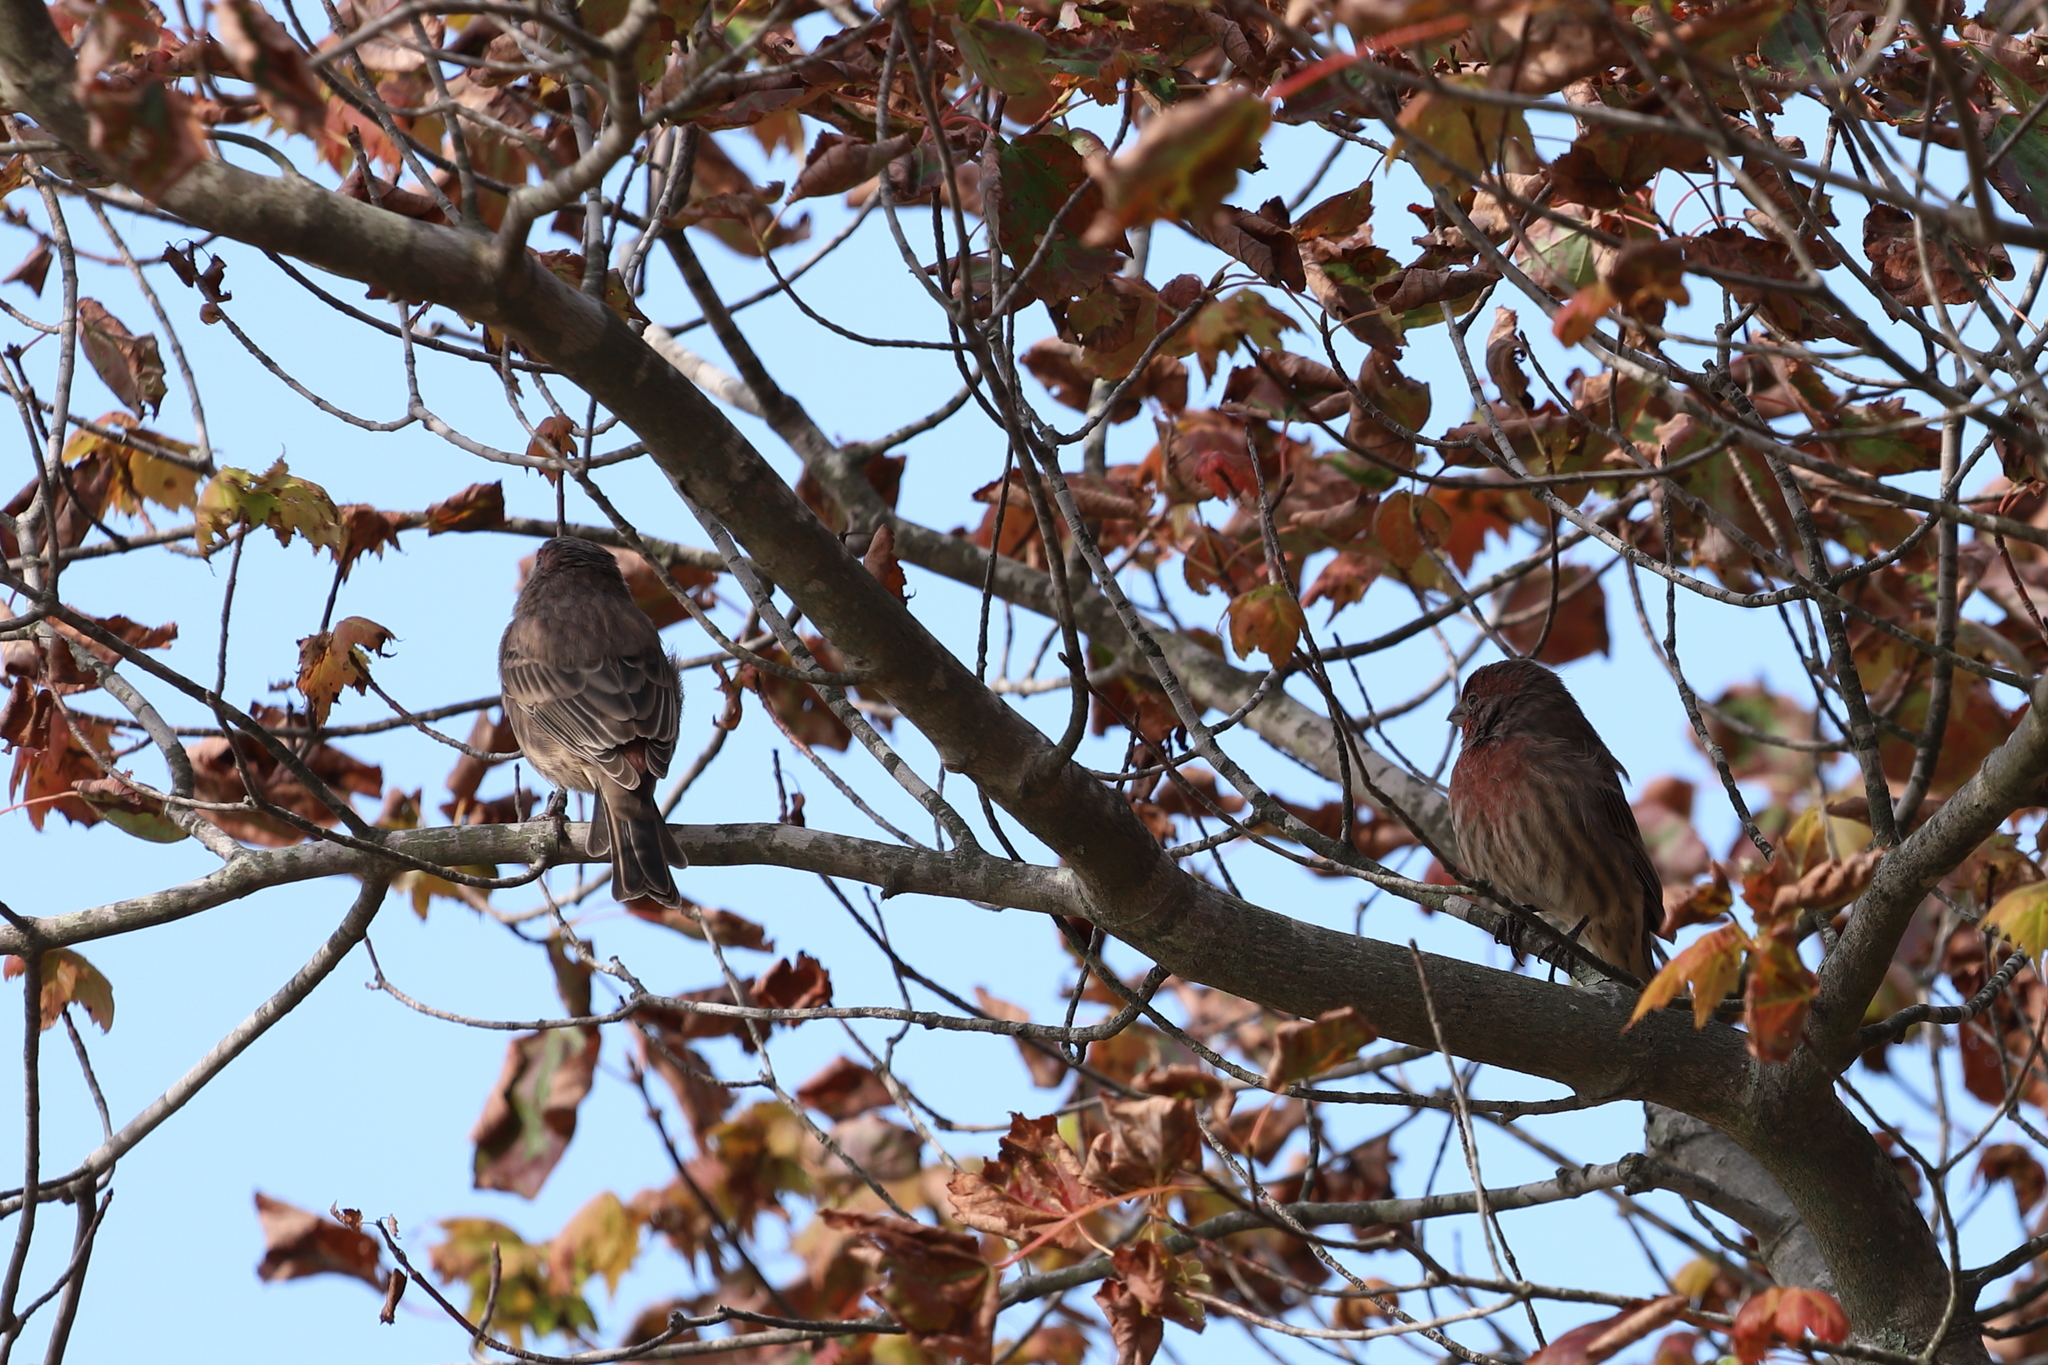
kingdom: Animalia
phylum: Chordata
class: Aves
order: Passeriformes
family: Fringillidae
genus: Haemorhous
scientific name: Haemorhous mexicanus
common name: House finch
